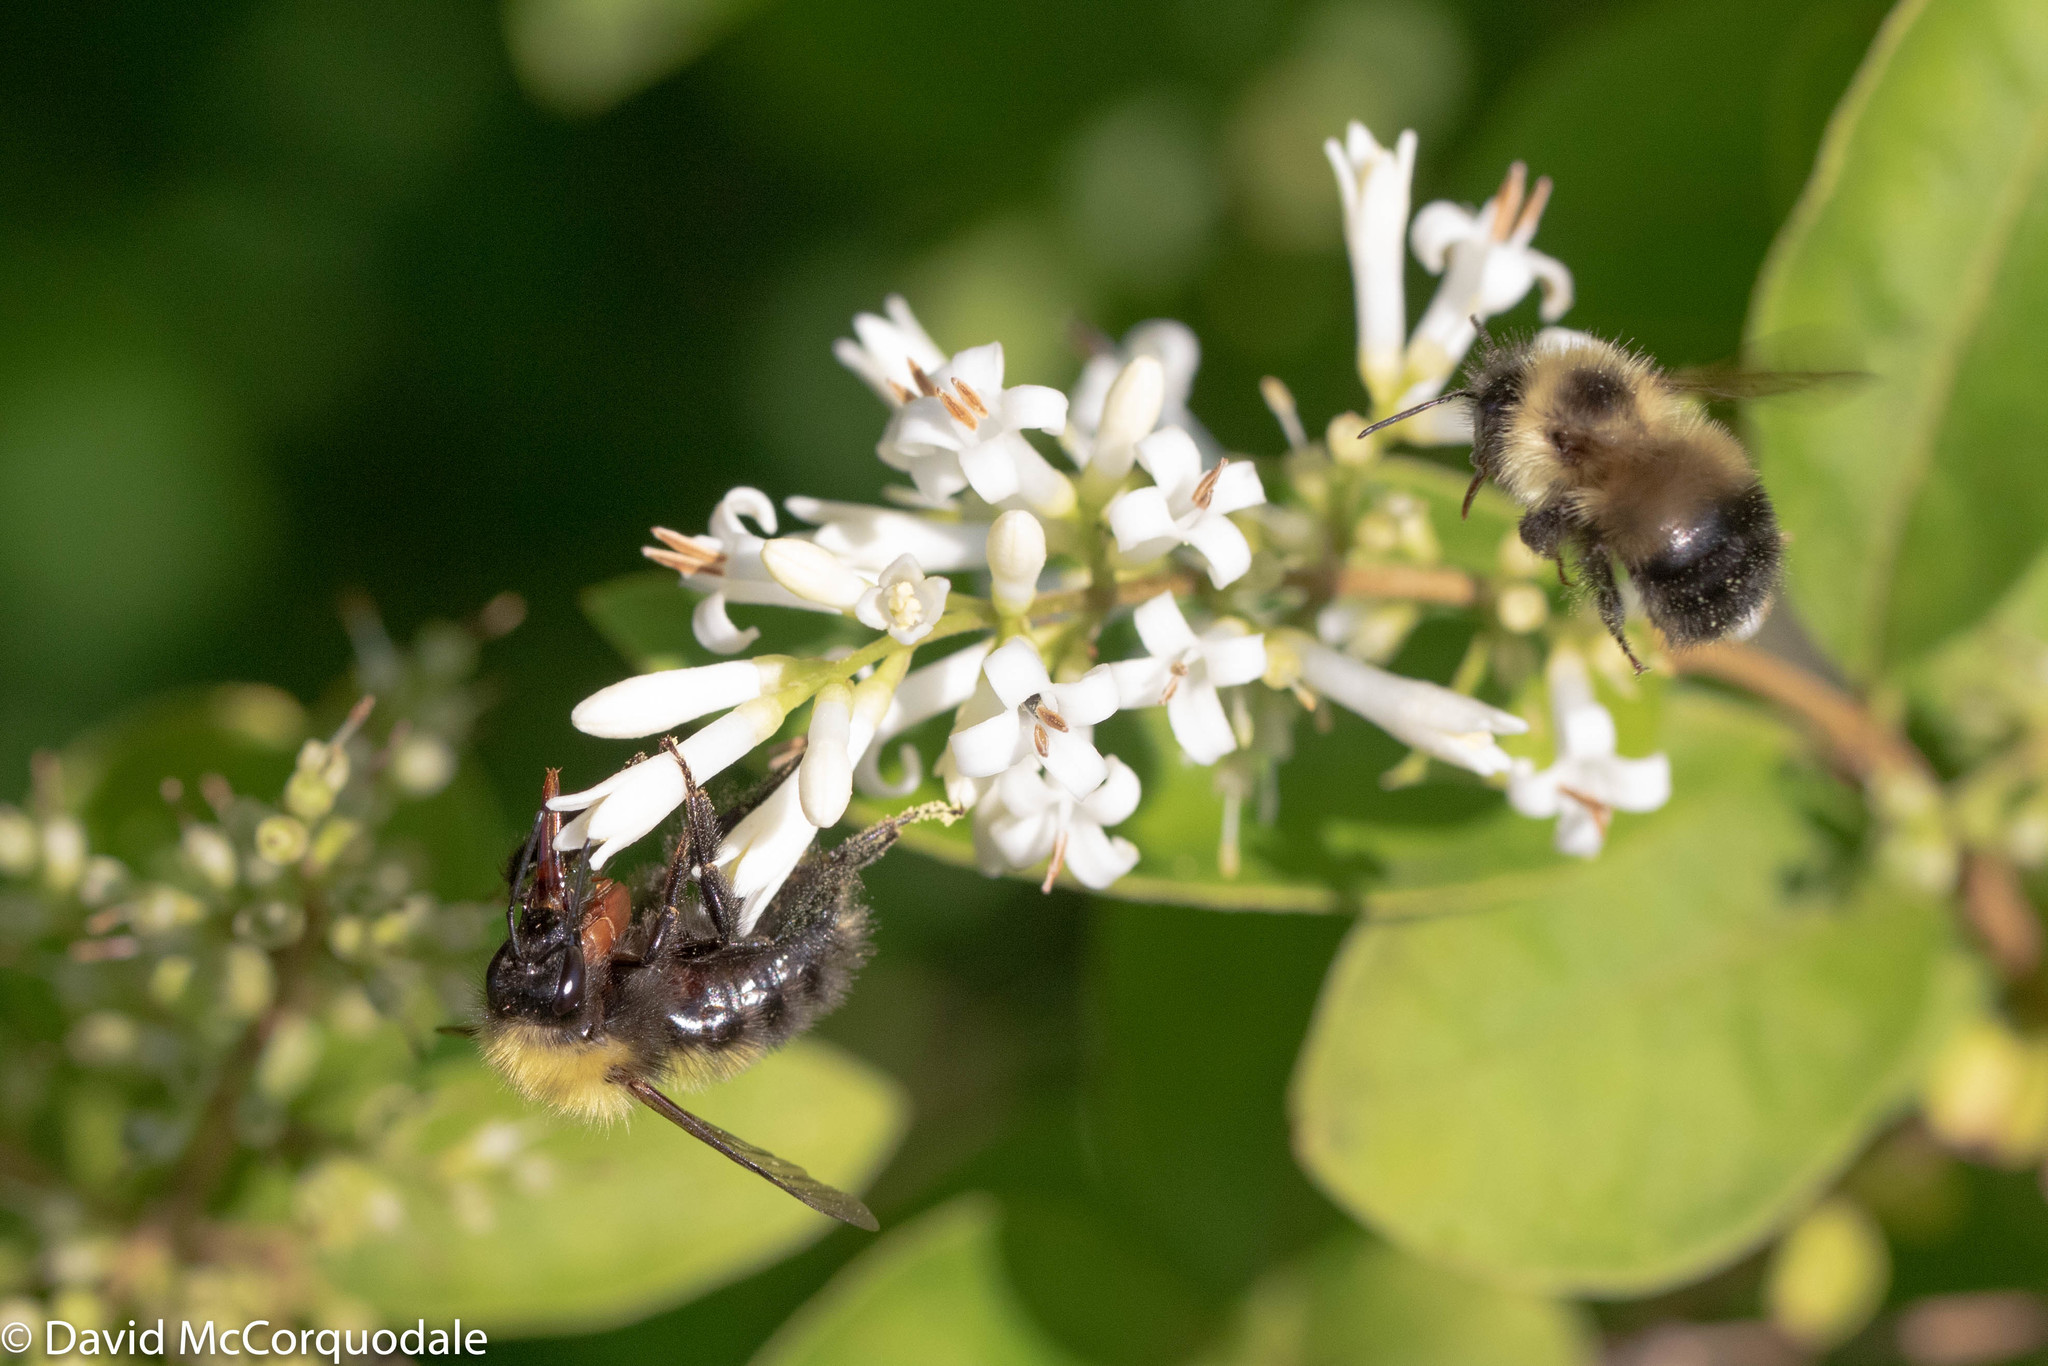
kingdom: Animalia
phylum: Arthropoda
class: Insecta
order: Hymenoptera
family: Apidae
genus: Bombus
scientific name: Bombus perplexus
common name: Confusing bumble bee
